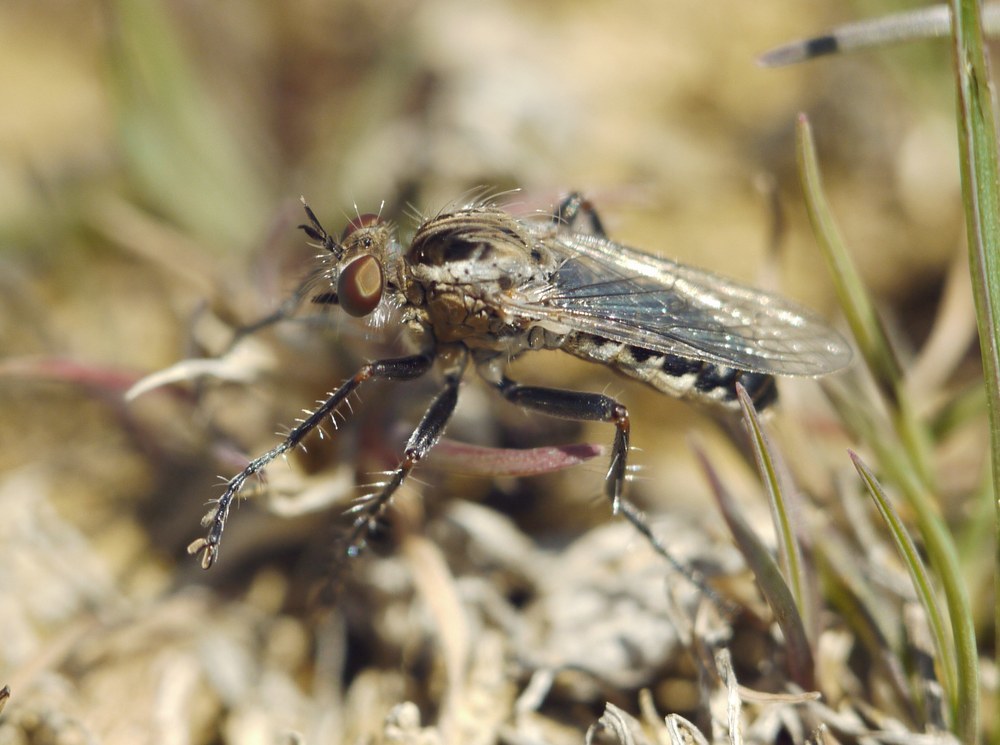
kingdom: Animalia
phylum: Arthropoda
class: Insecta
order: Diptera
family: Asilidae
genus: Paraphamartania
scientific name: Paraphamartania syriaca
